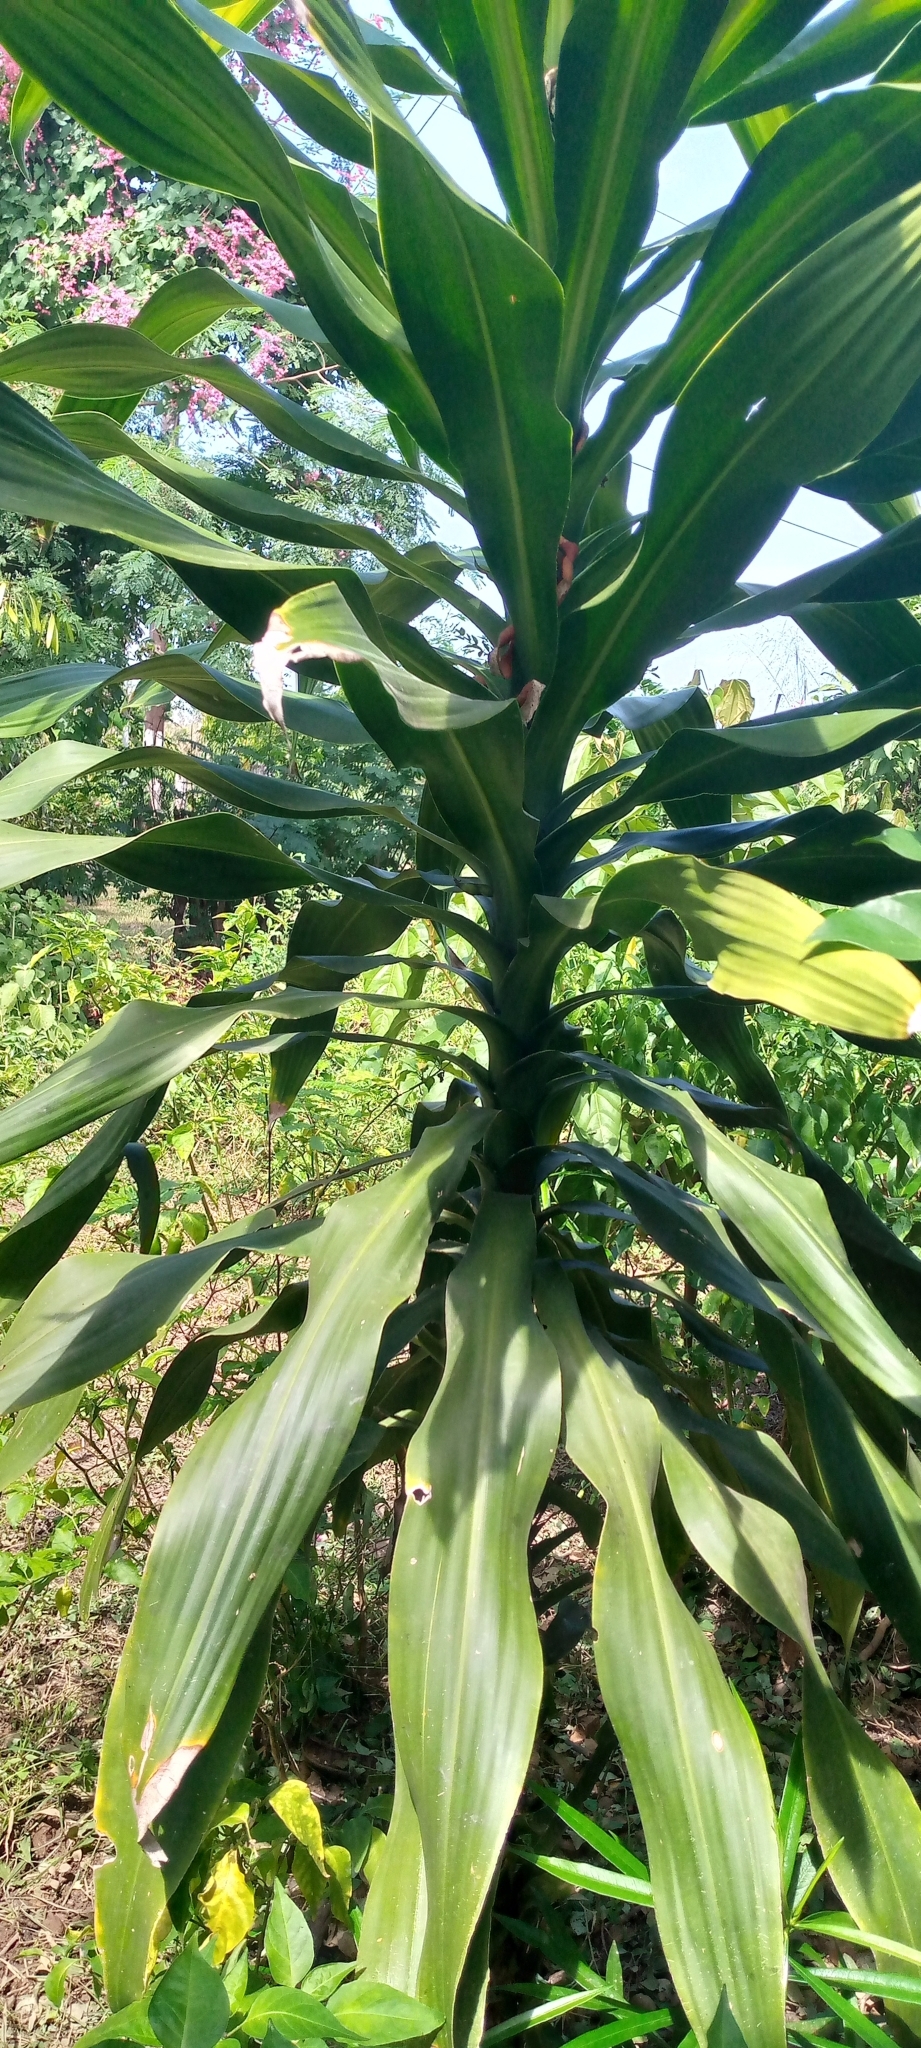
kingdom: Plantae
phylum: Tracheophyta
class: Liliopsida
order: Asparagales
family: Asparagaceae
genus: Dracaena
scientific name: Dracaena fragrans
